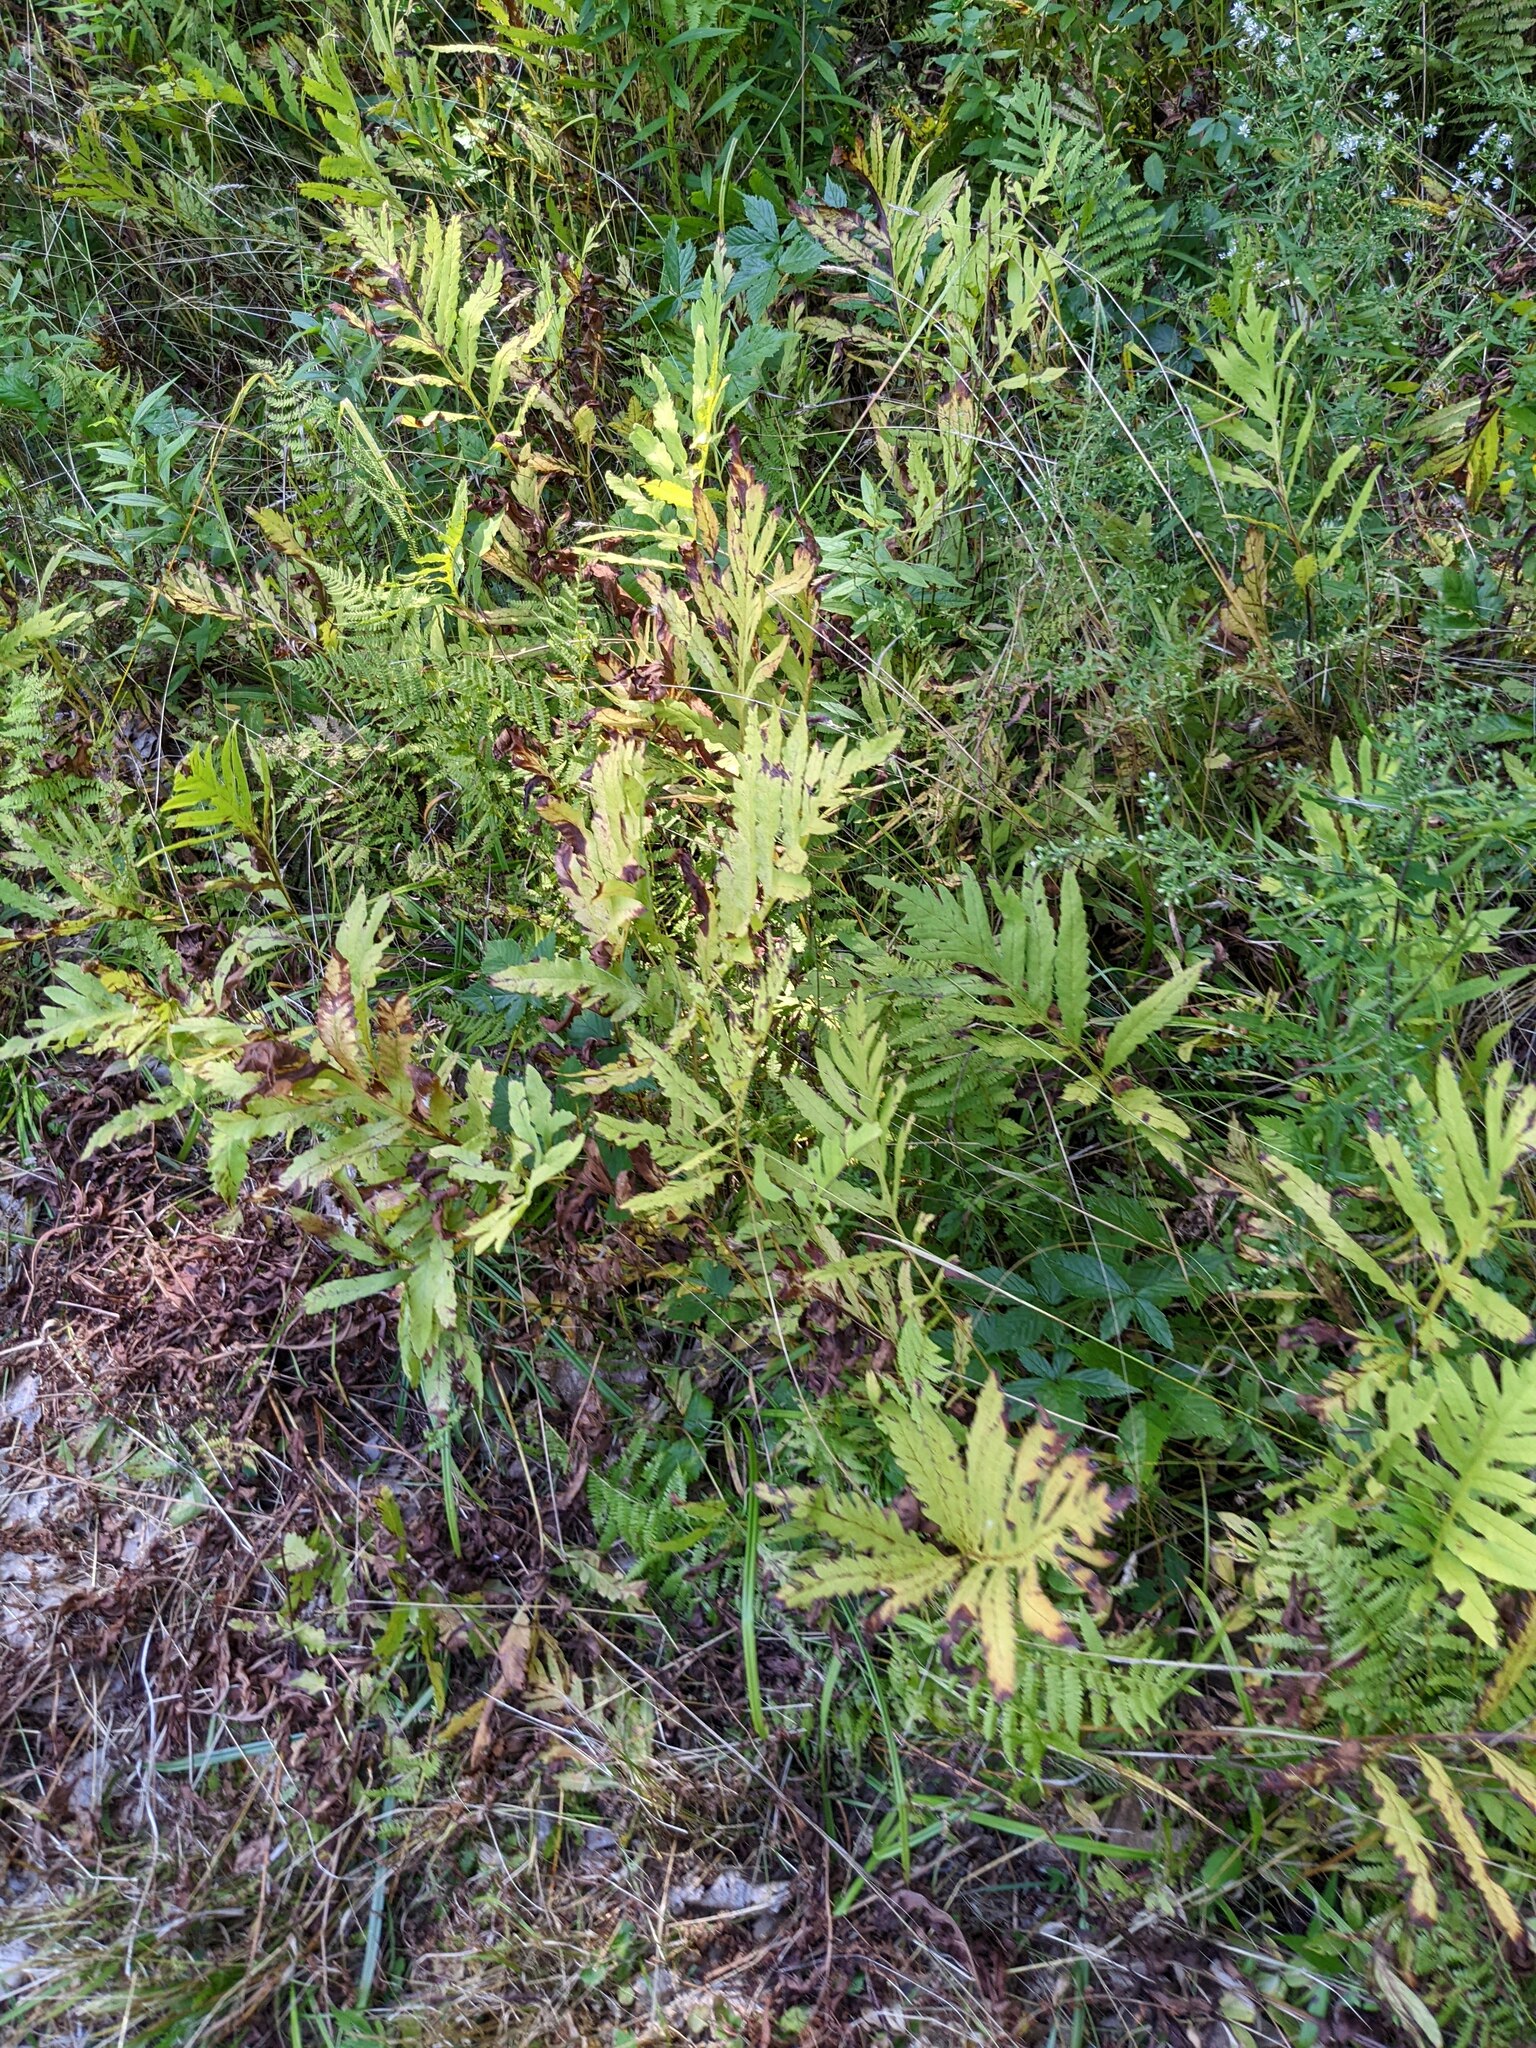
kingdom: Plantae
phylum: Tracheophyta
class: Polypodiopsida
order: Polypodiales
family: Onocleaceae
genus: Onoclea
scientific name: Onoclea sensibilis
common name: Sensitive fern
